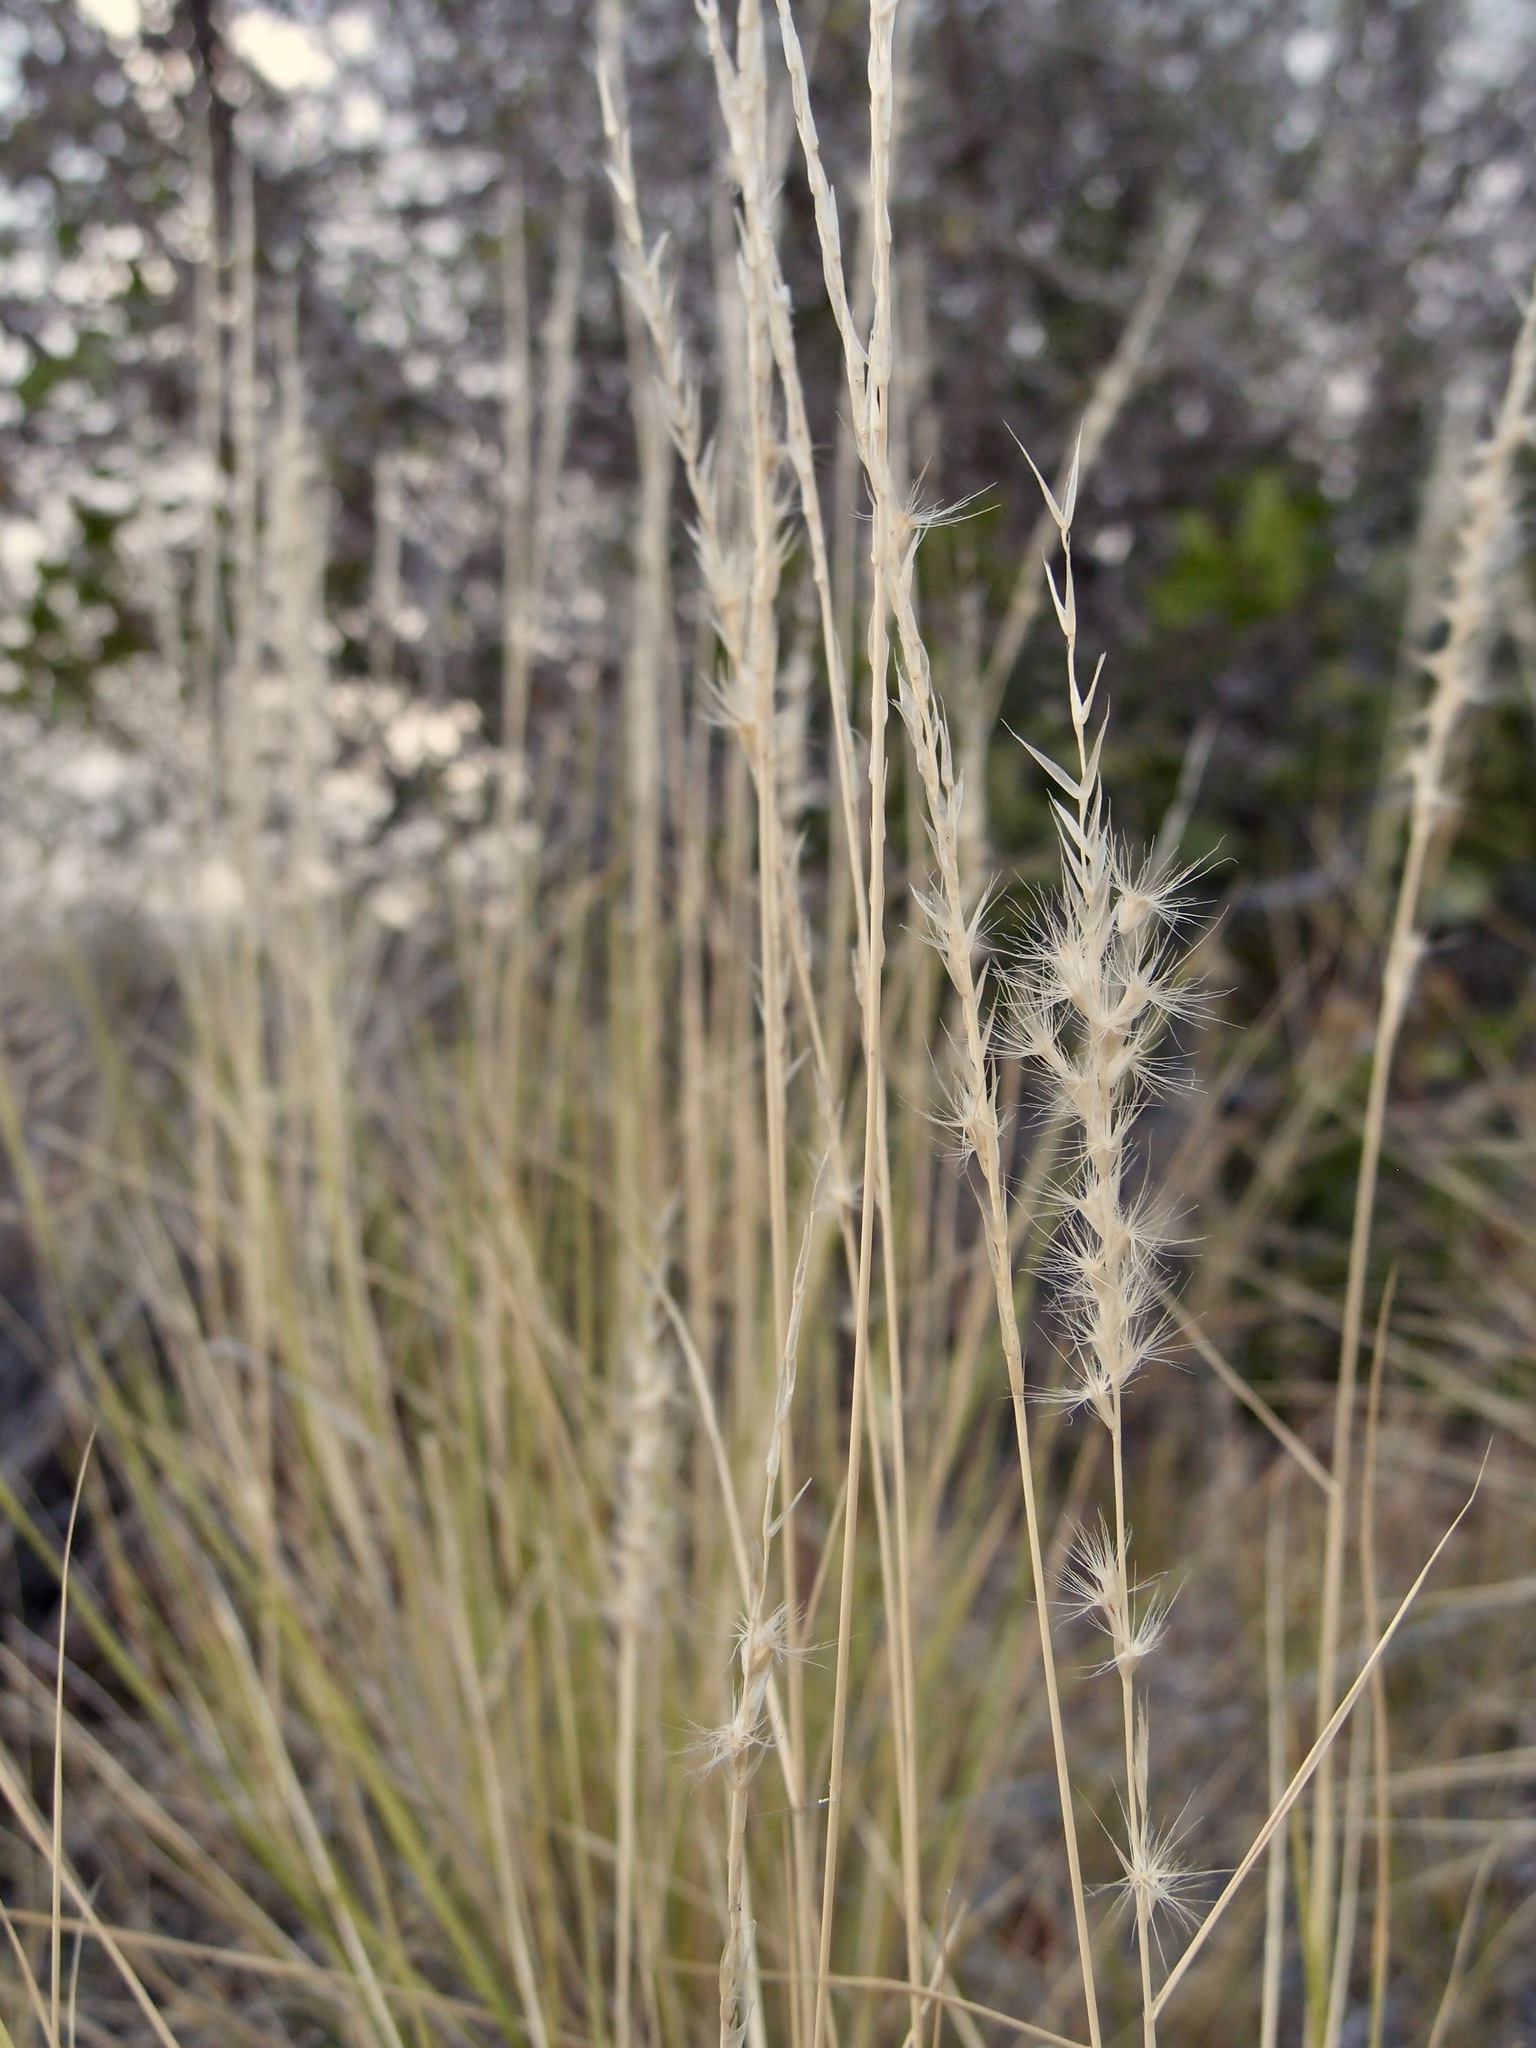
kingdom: Plantae
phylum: Tracheophyta
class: Liliopsida
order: Poales
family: Poaceae
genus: Pappophorum
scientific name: Pappophorum philippianum
